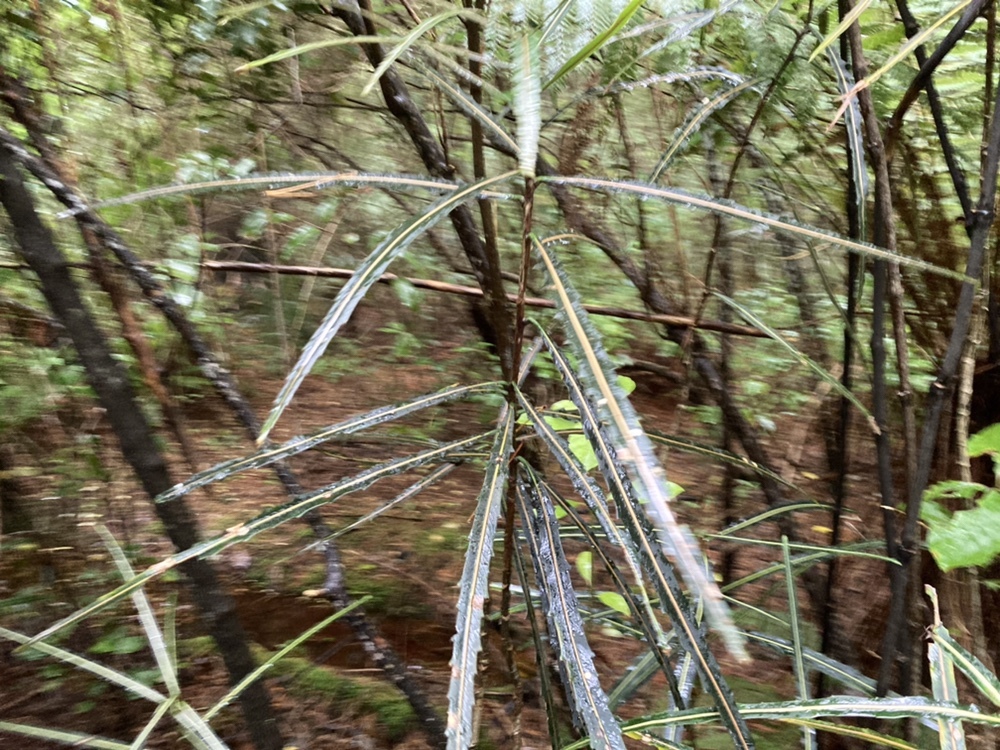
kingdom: Plantae
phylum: Tracheophyta
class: Magnoliopsida
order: Apiales
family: Araliaceae
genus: Pseudopanax
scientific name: Pseudopanax crassifolius
